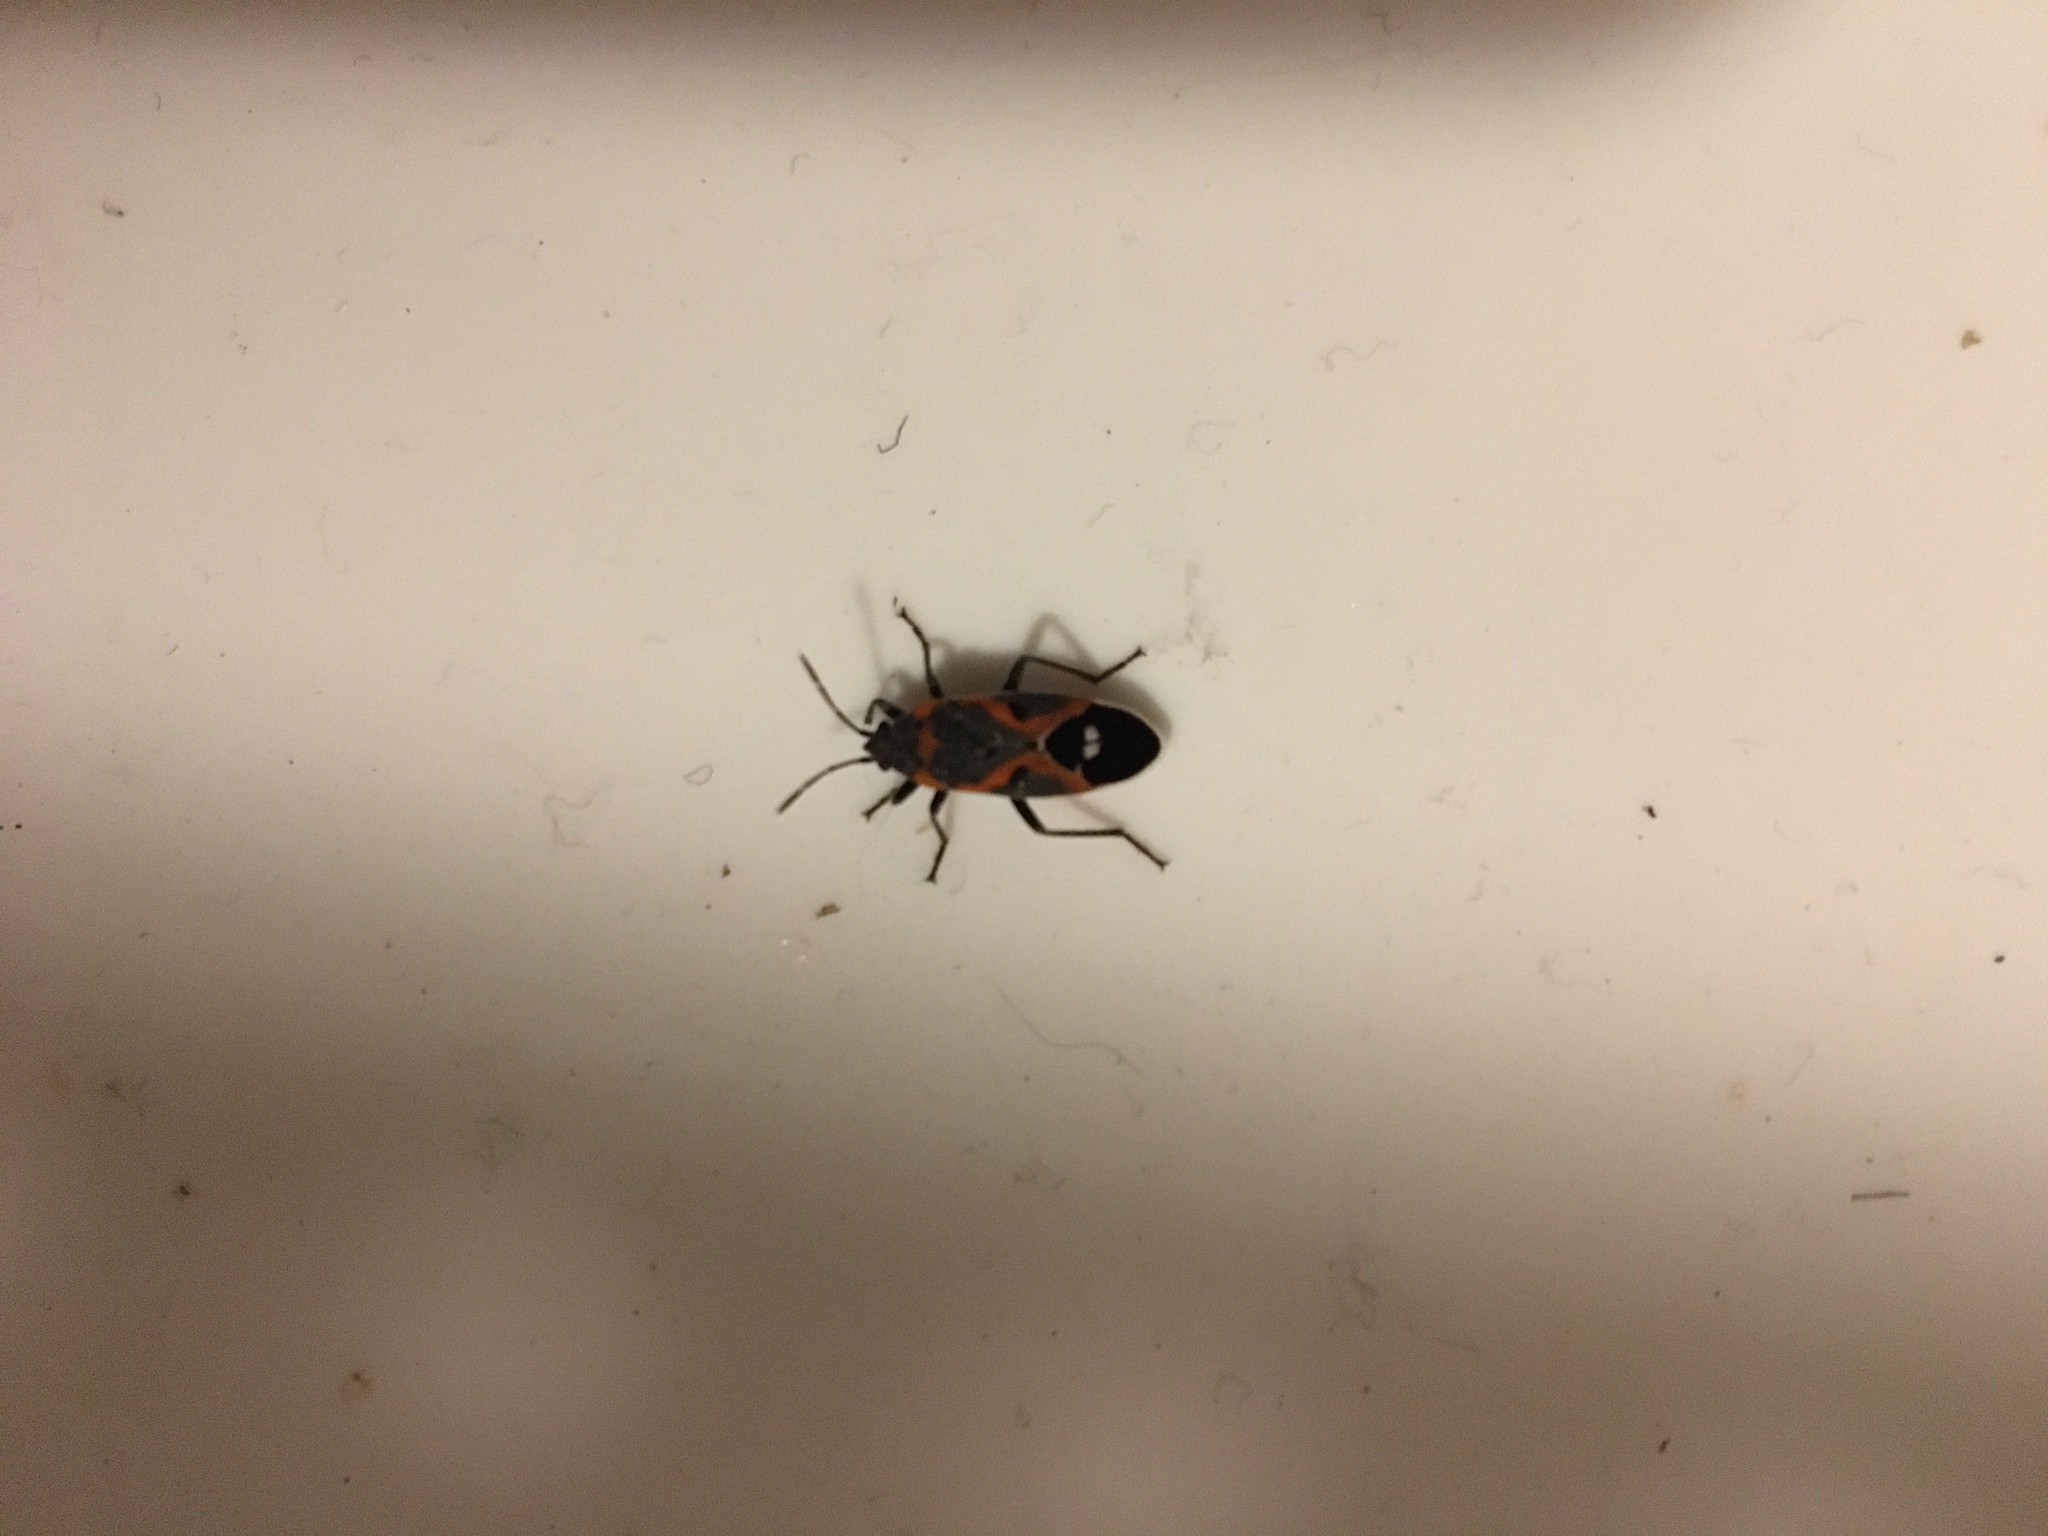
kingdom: Animalia
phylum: Arthropoda
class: Insecta
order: Hemiptera
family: Lygaeidae
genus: Lygaeus
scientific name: Lygaeus kalmii
